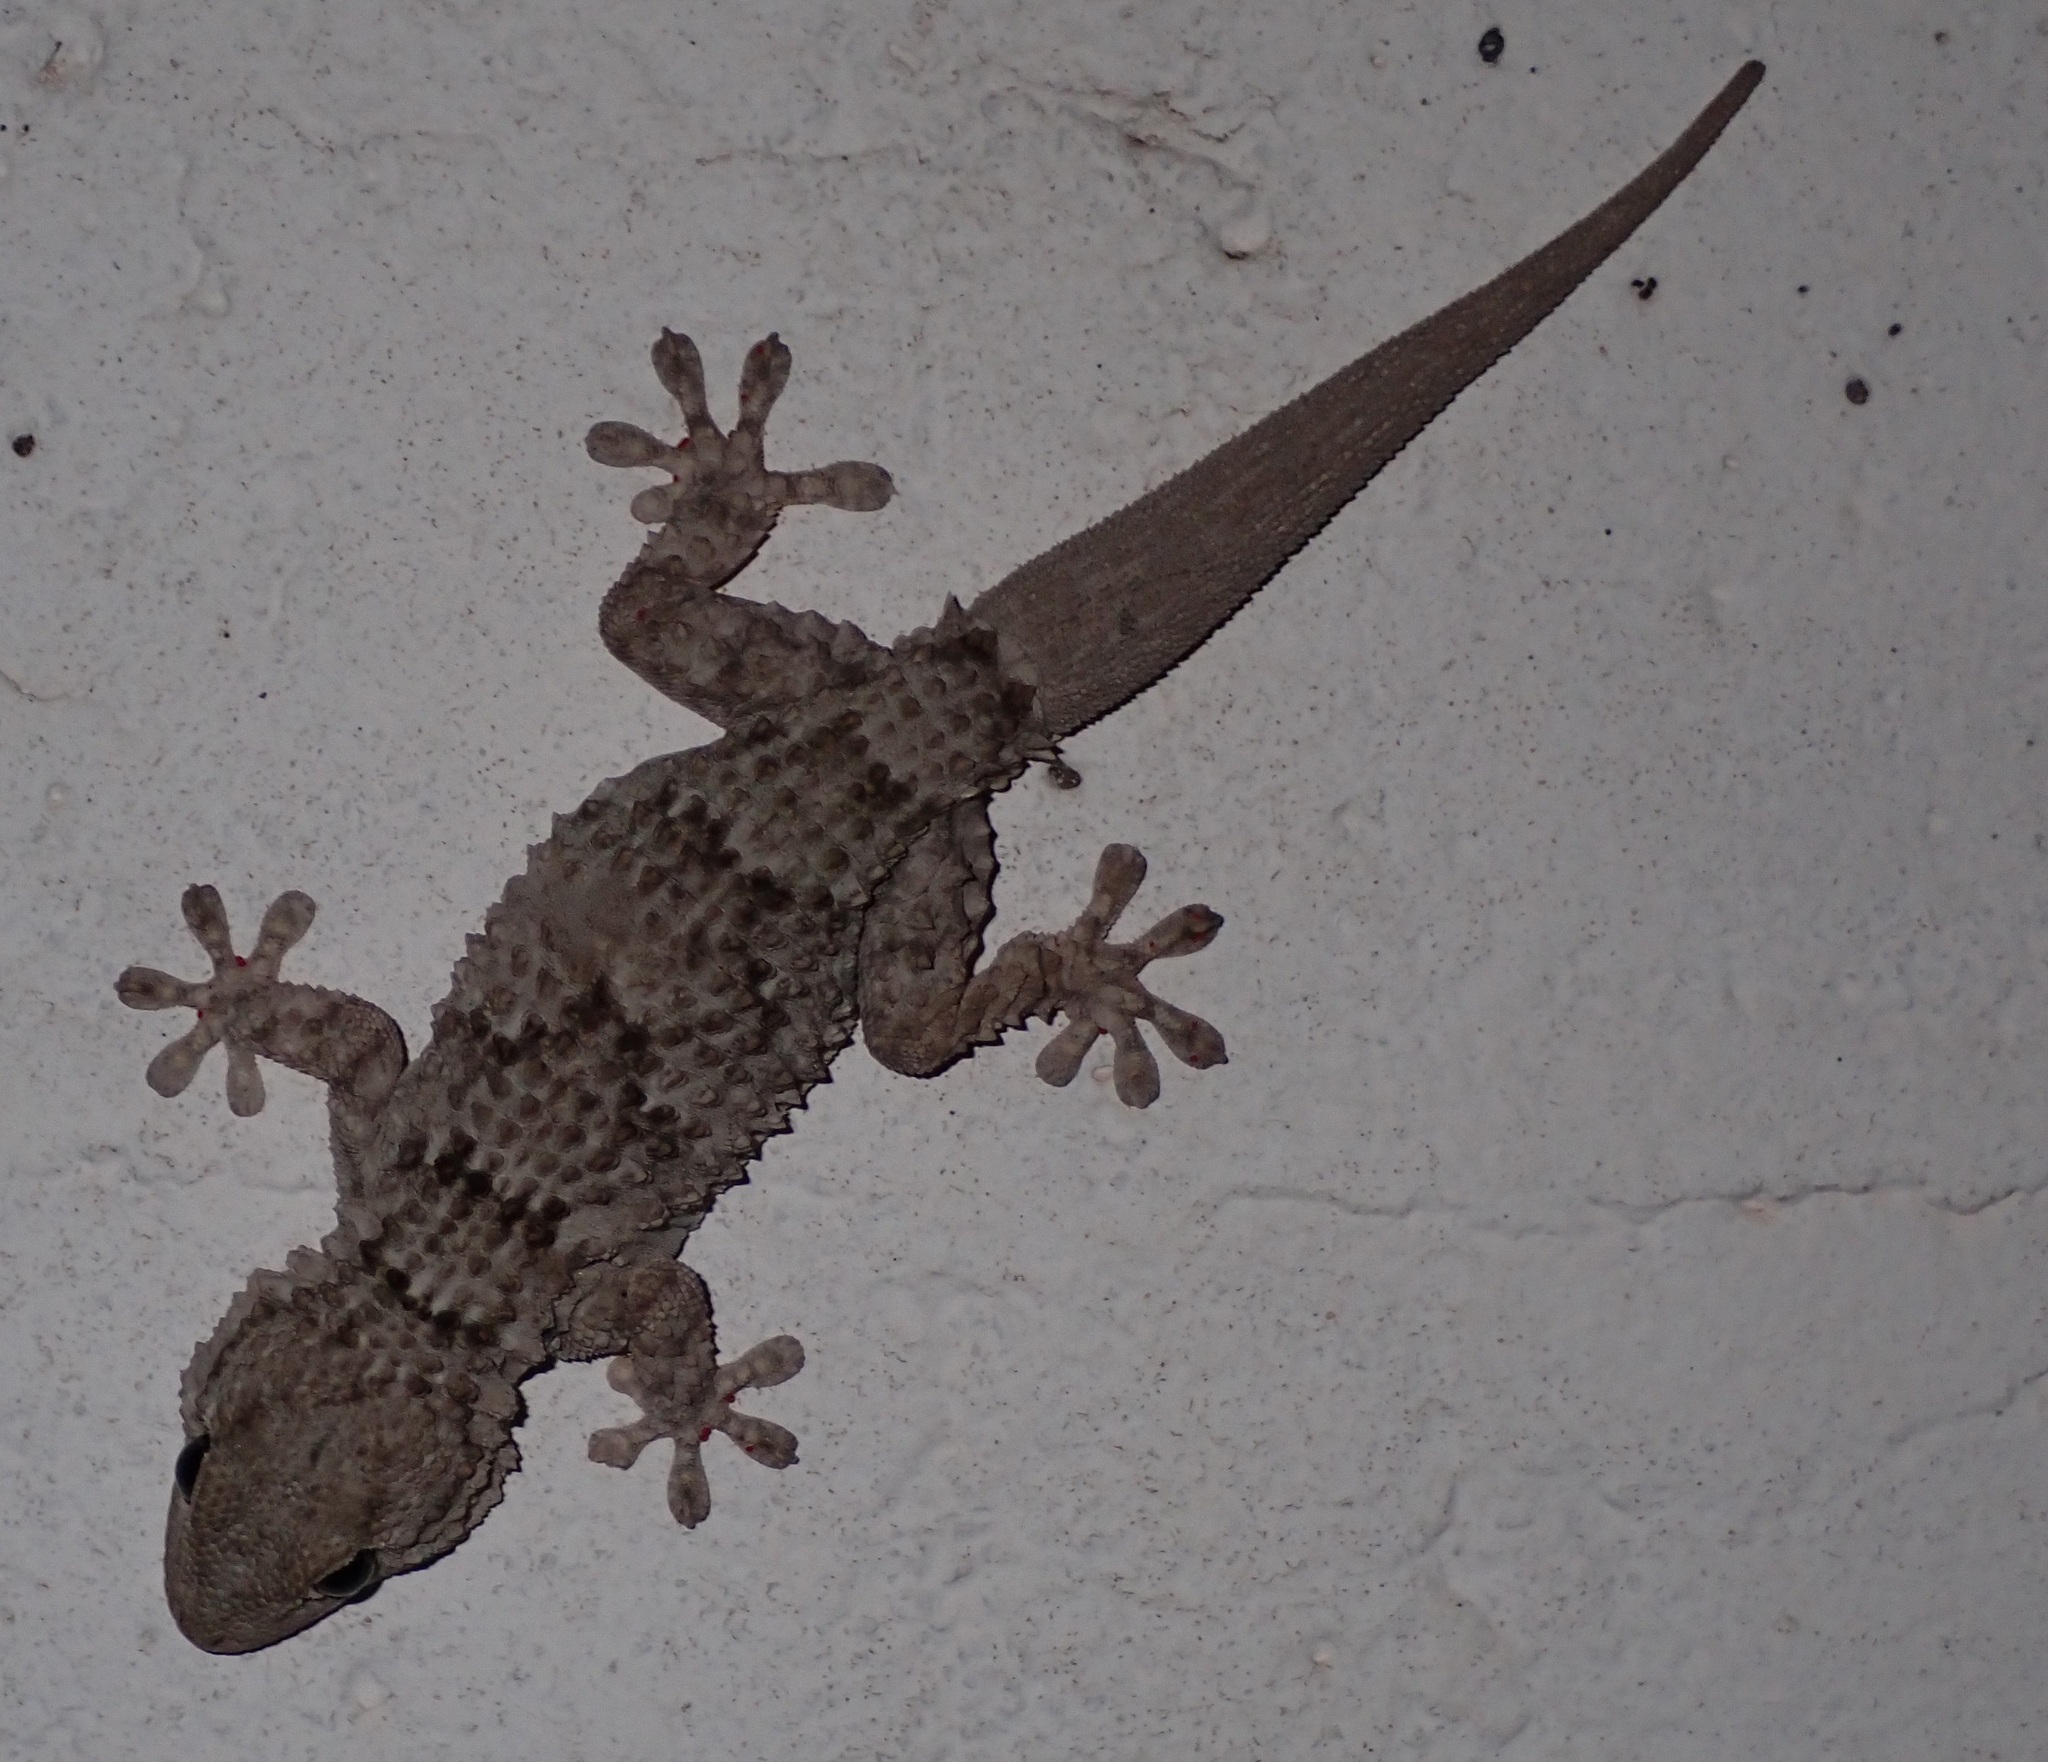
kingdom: Animalia
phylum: Chordata
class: Squamata
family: Phyllodactylidae
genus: Tarentola
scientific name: Tarentola mauritanica
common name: Moorish gecko
